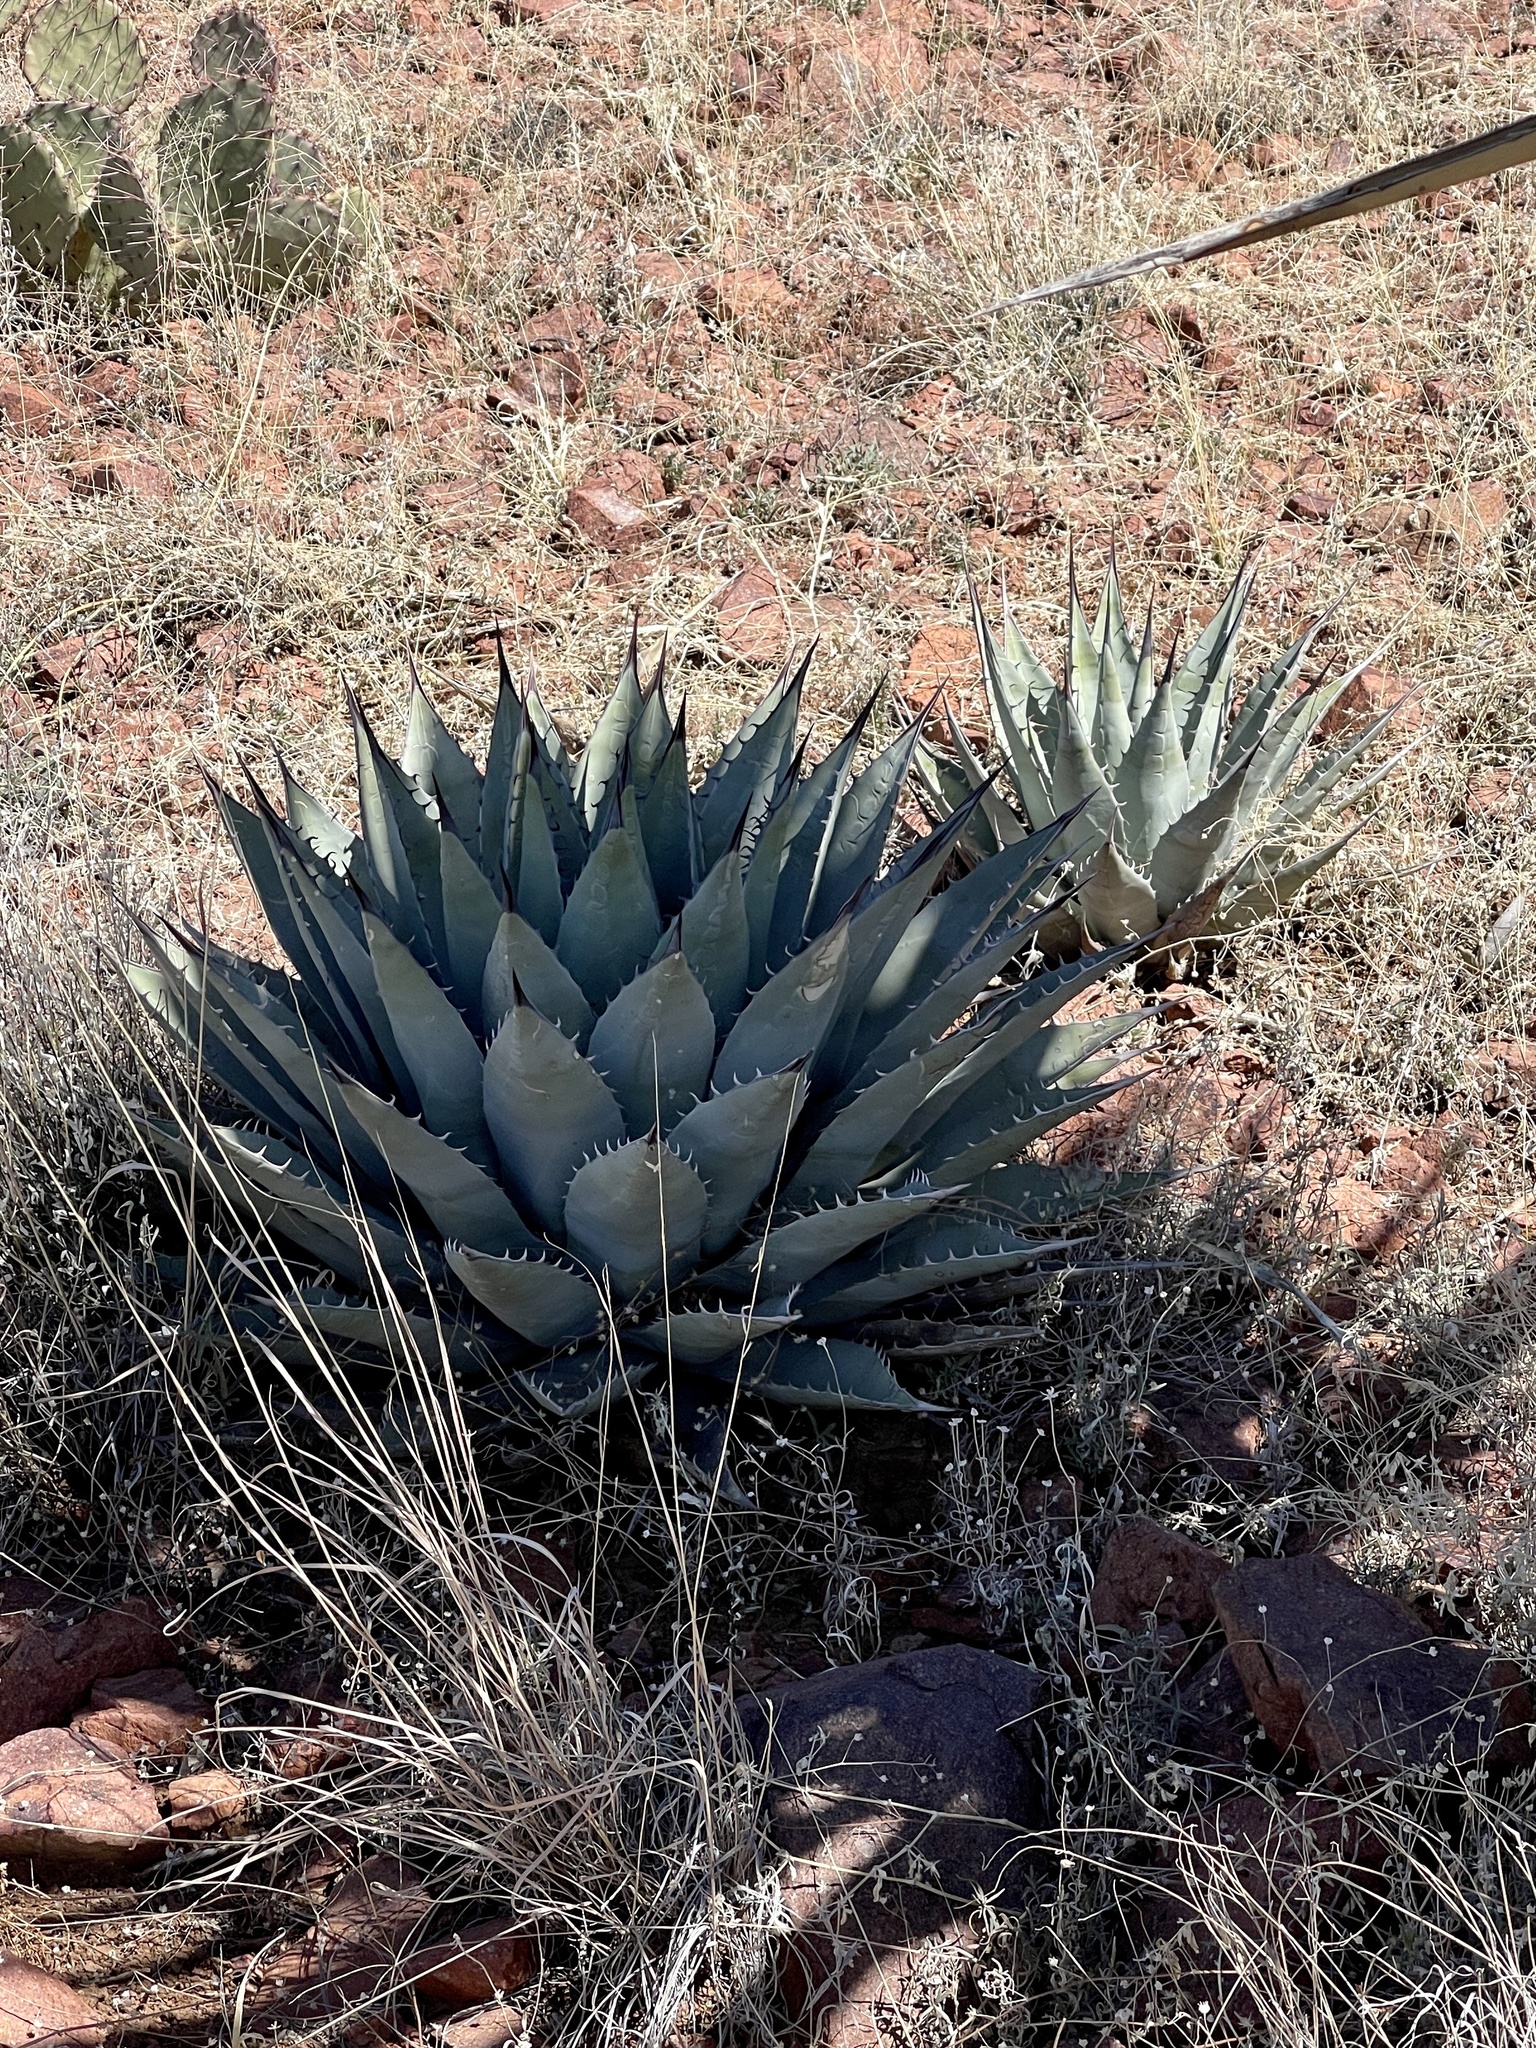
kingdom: Plantae
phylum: Tracheophyta
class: Liliopsida
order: Asparagales
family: Asparagaceae
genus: Agave
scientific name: Agave parryi
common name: Parry's agave
